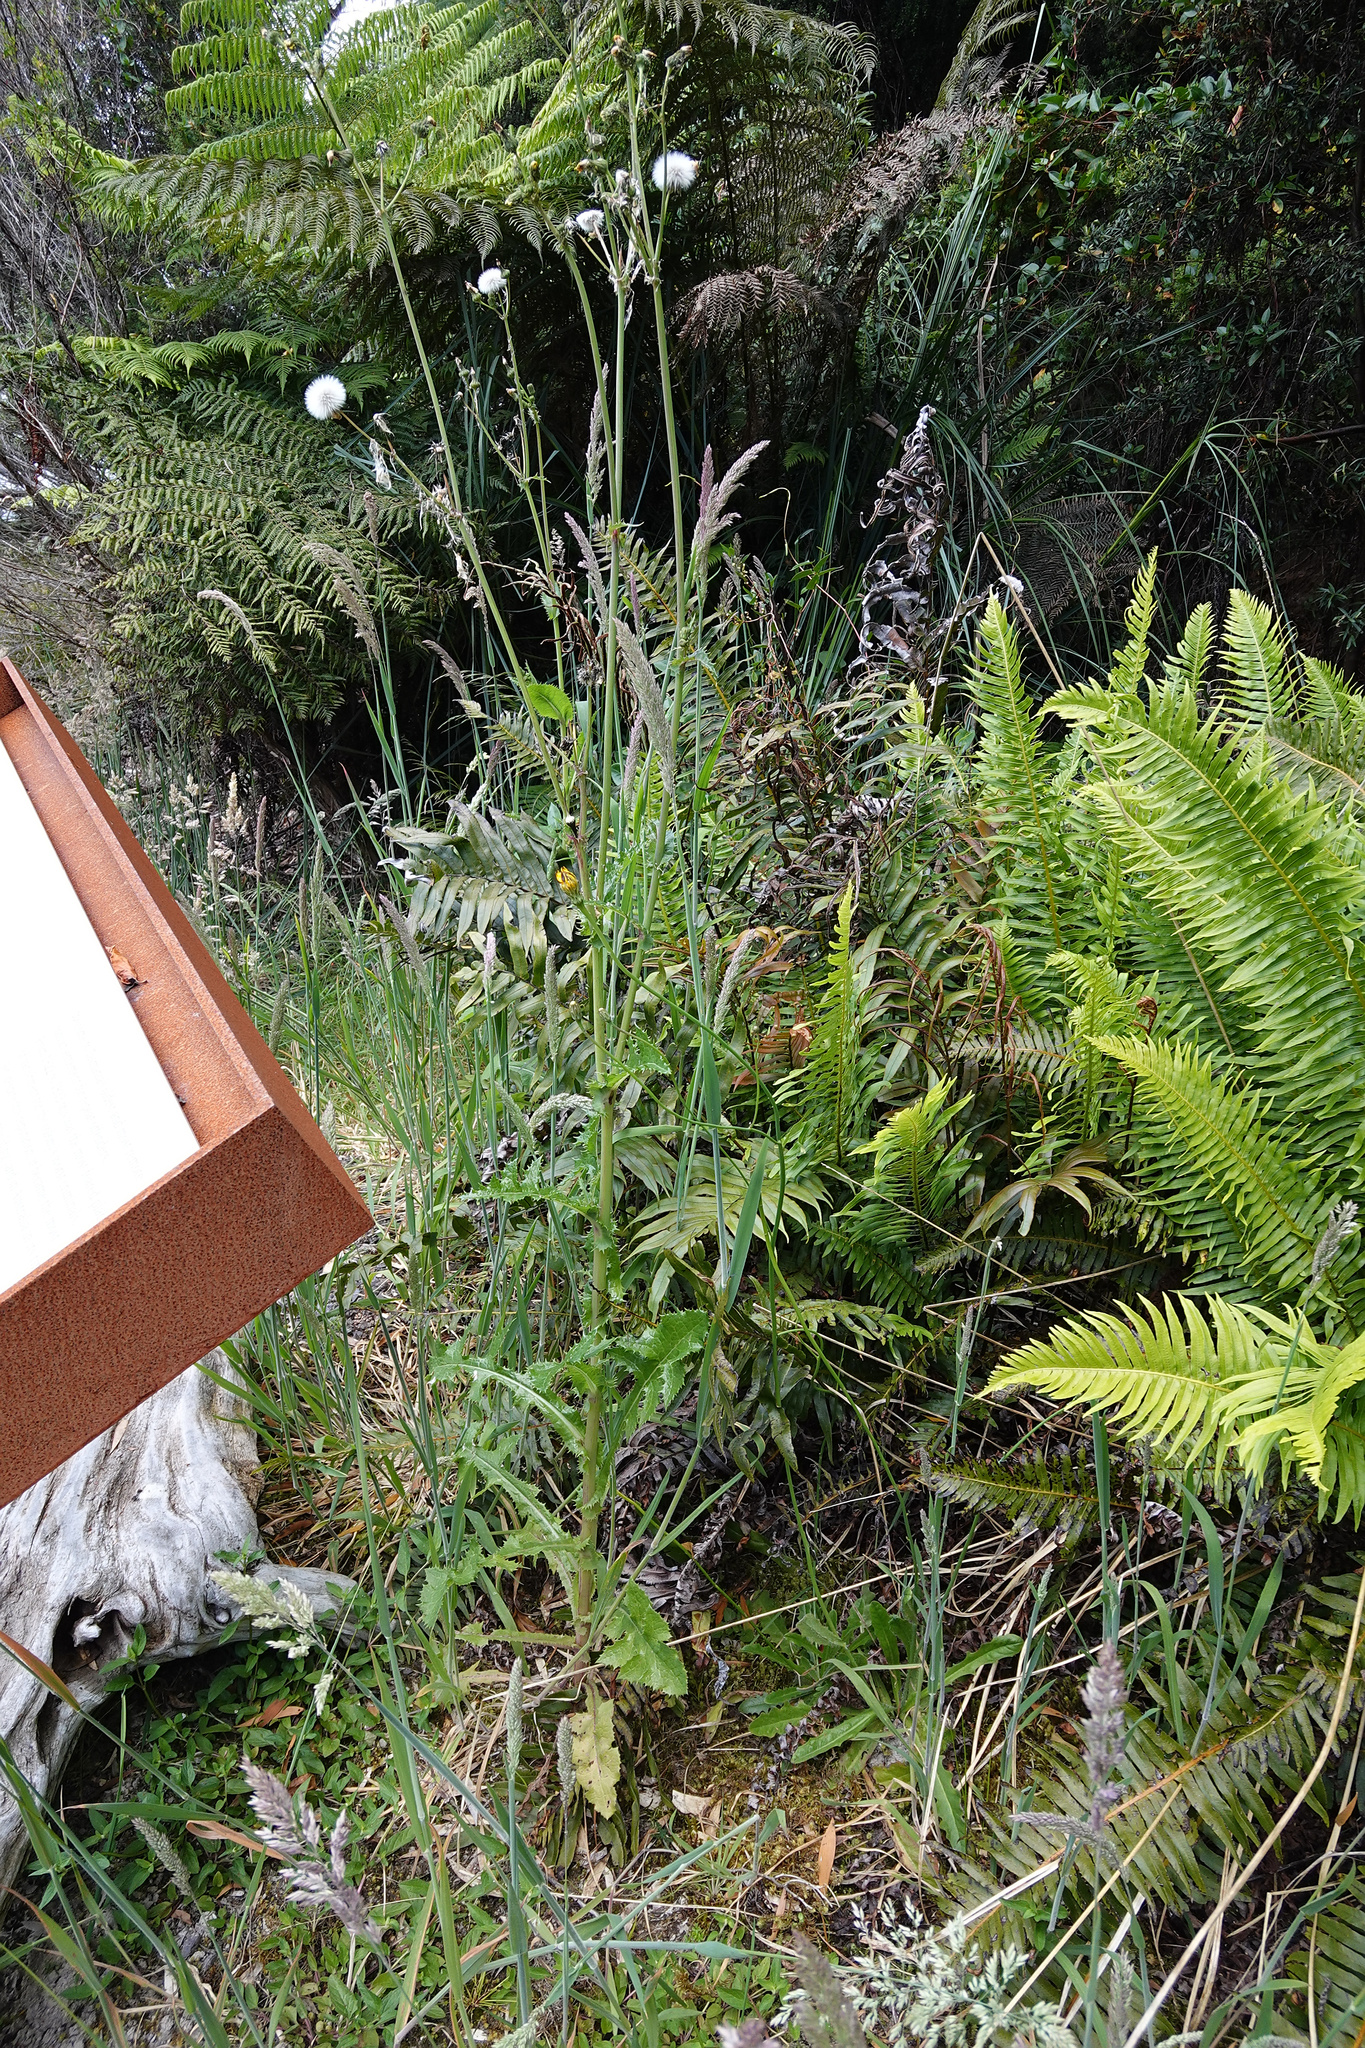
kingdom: Plantae
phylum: Tracheophyta
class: Magnoliopsida
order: Asterales
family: Asteraceae
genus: Sonchus
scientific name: Sonchus asper
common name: Prickly sow-thistle
